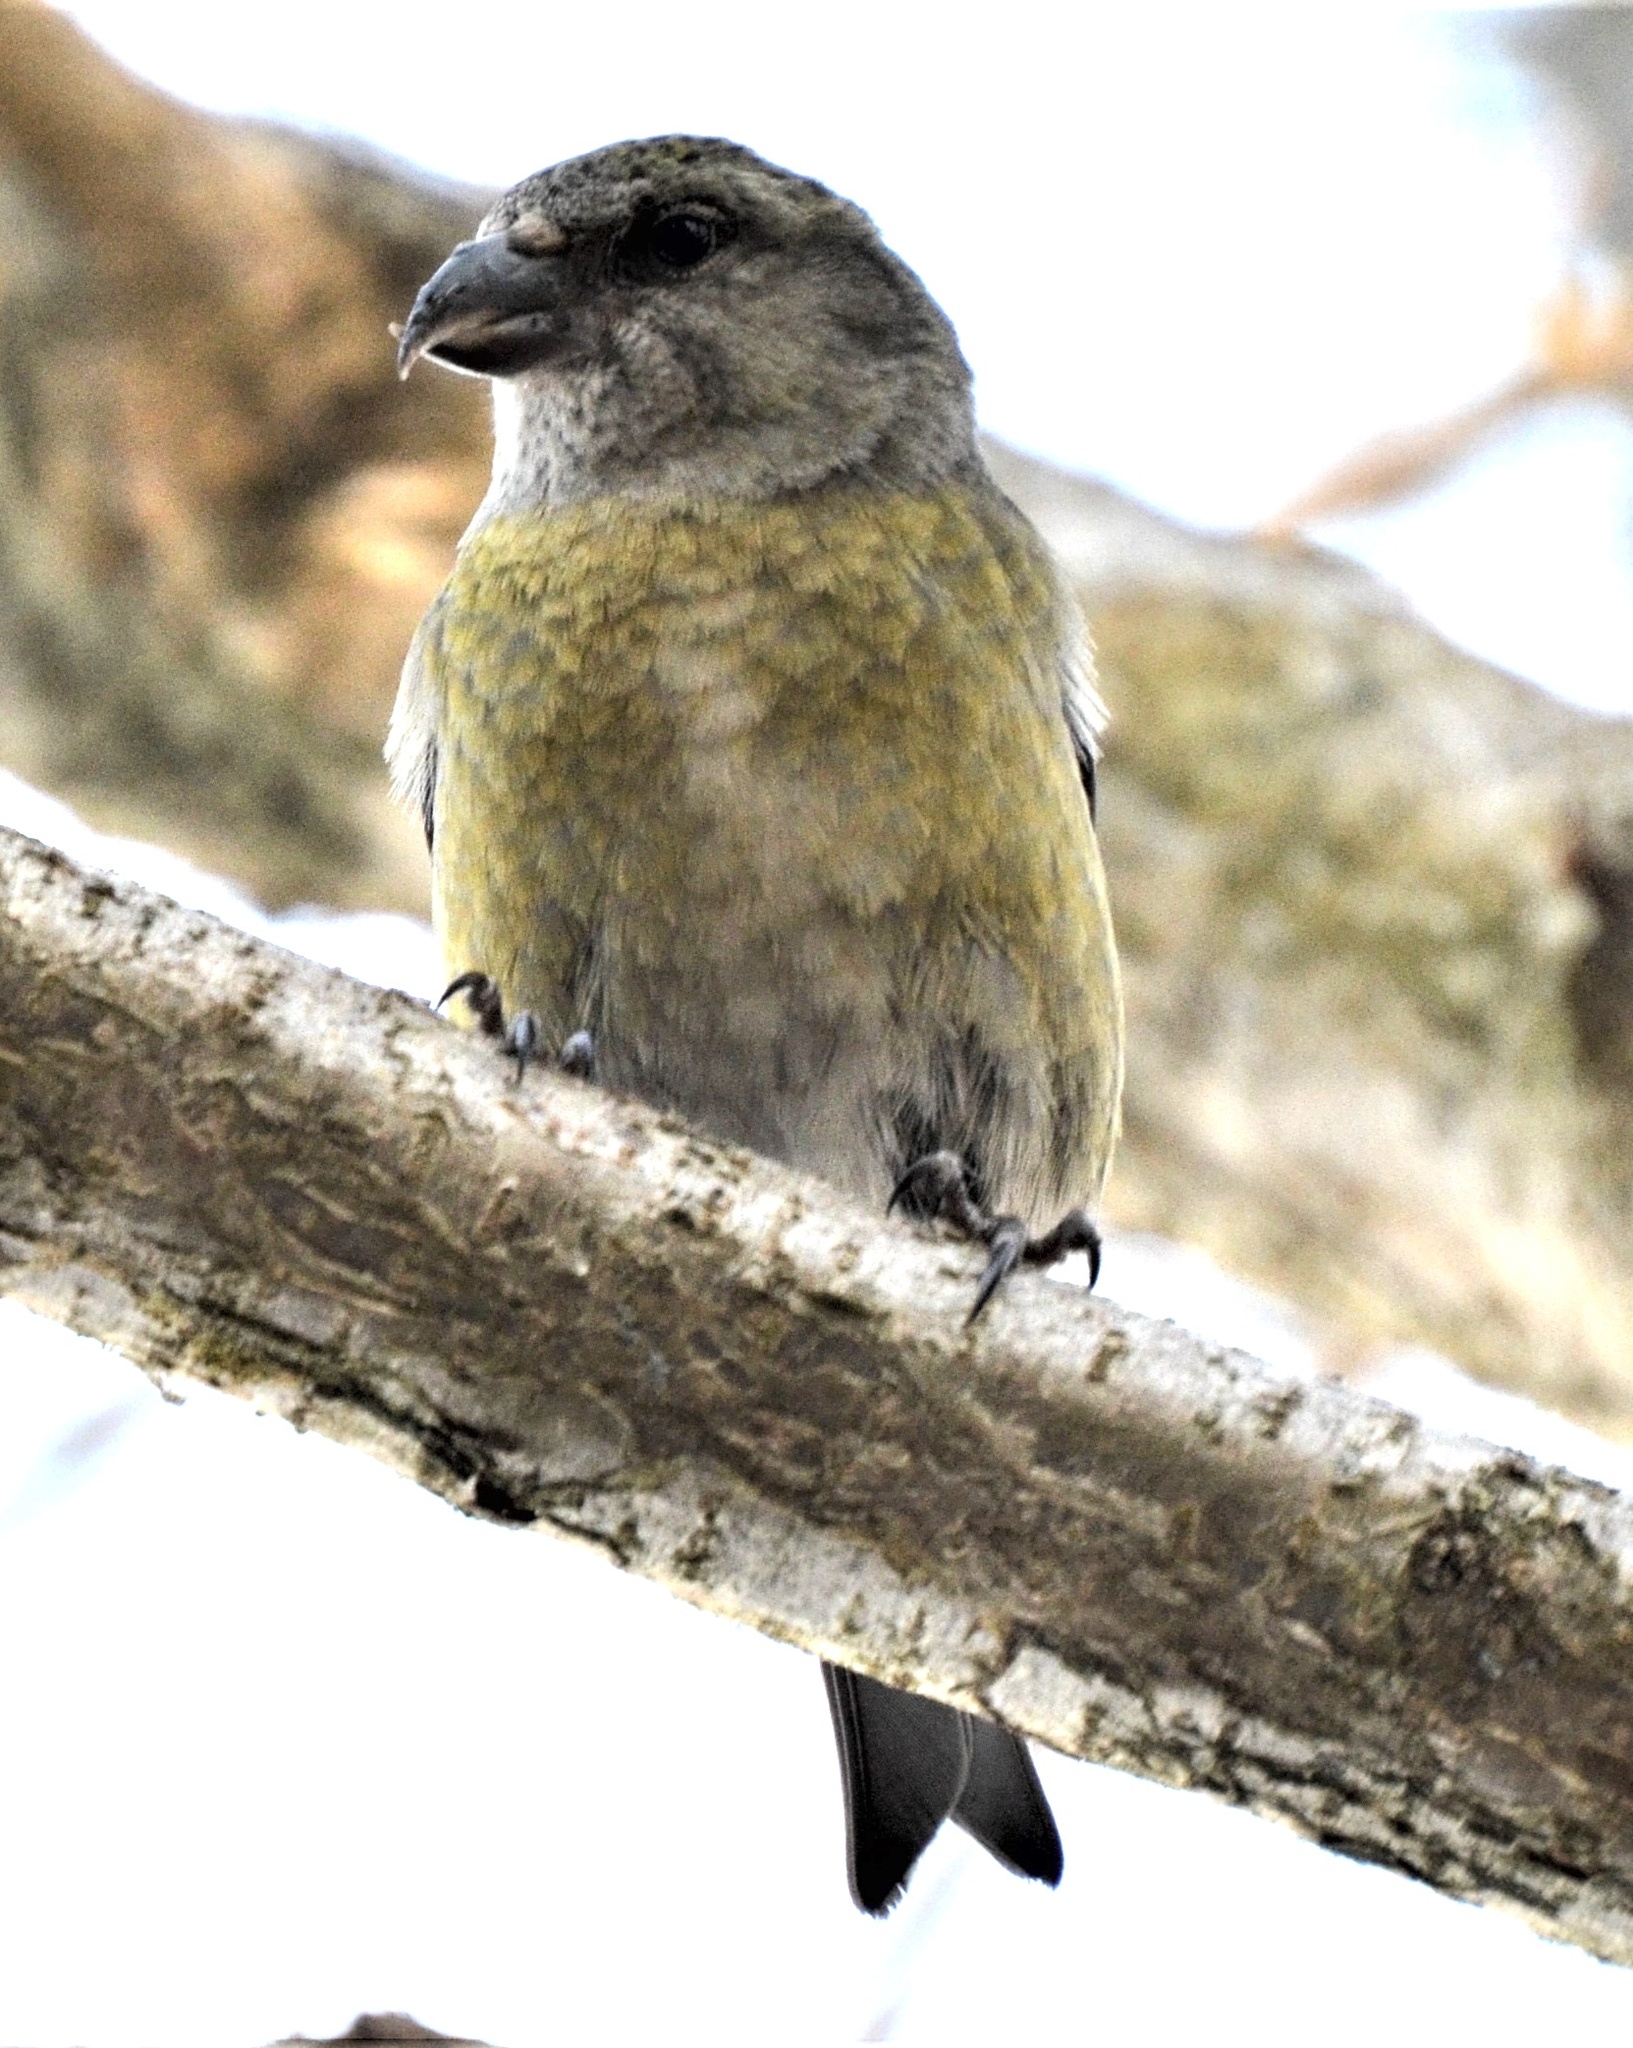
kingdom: Animalia
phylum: Chordata
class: Aves
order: Passeriformes
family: Fringillidae
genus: Loxia
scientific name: Loxia curvirostra
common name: Red crossbill
